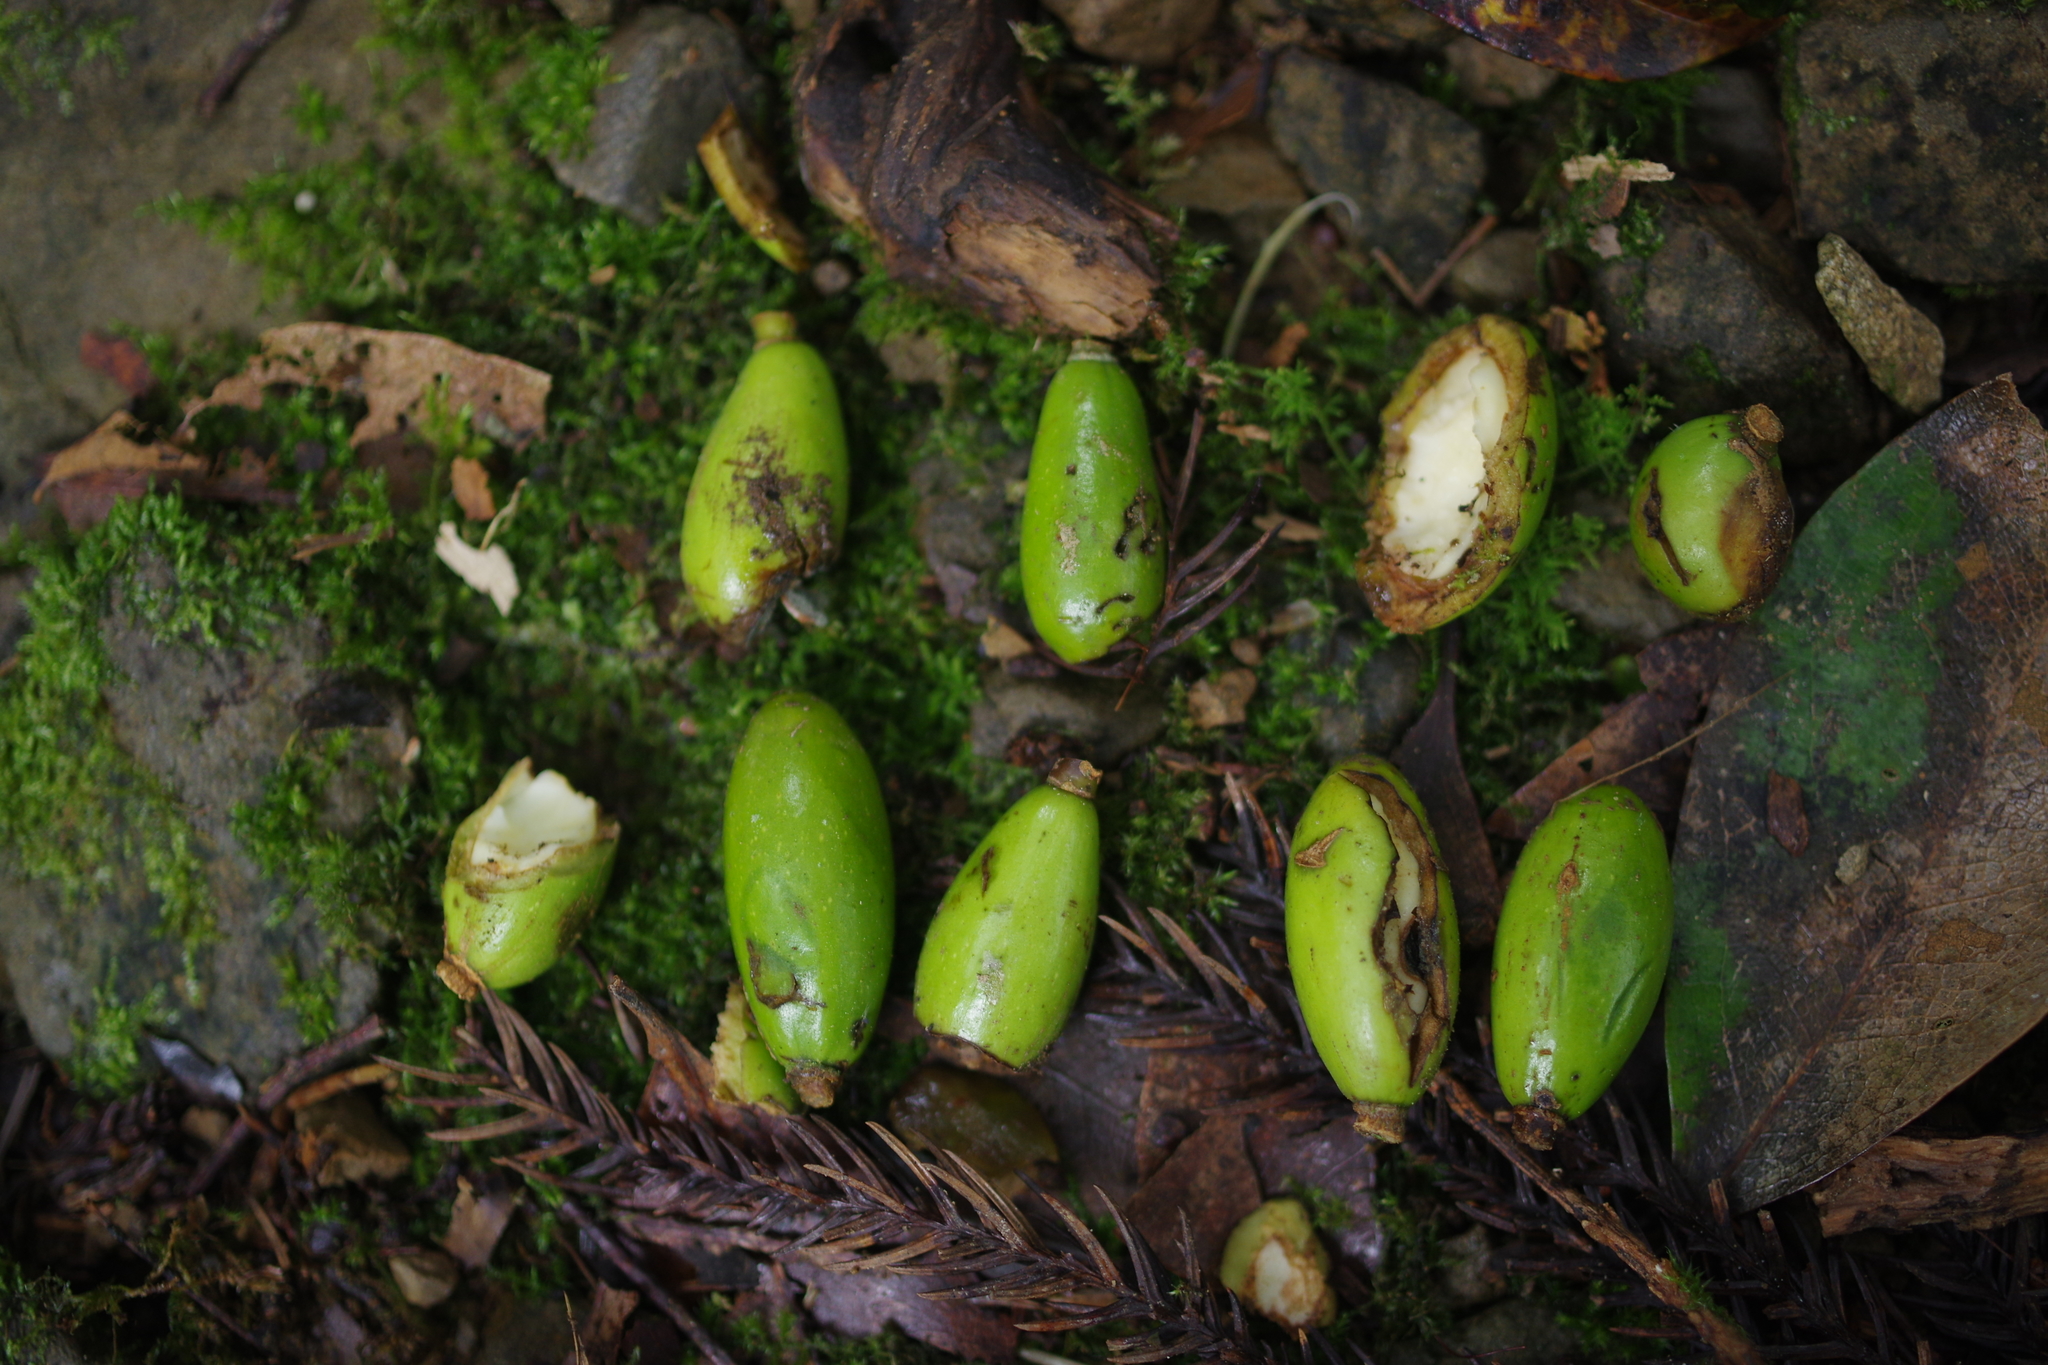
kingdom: Plantae
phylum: Tracheophyta
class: Magnoliopsida
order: Laurales
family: Lauraceae
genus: Beilschmiedia
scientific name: Beilschmiedia erythrophloia
